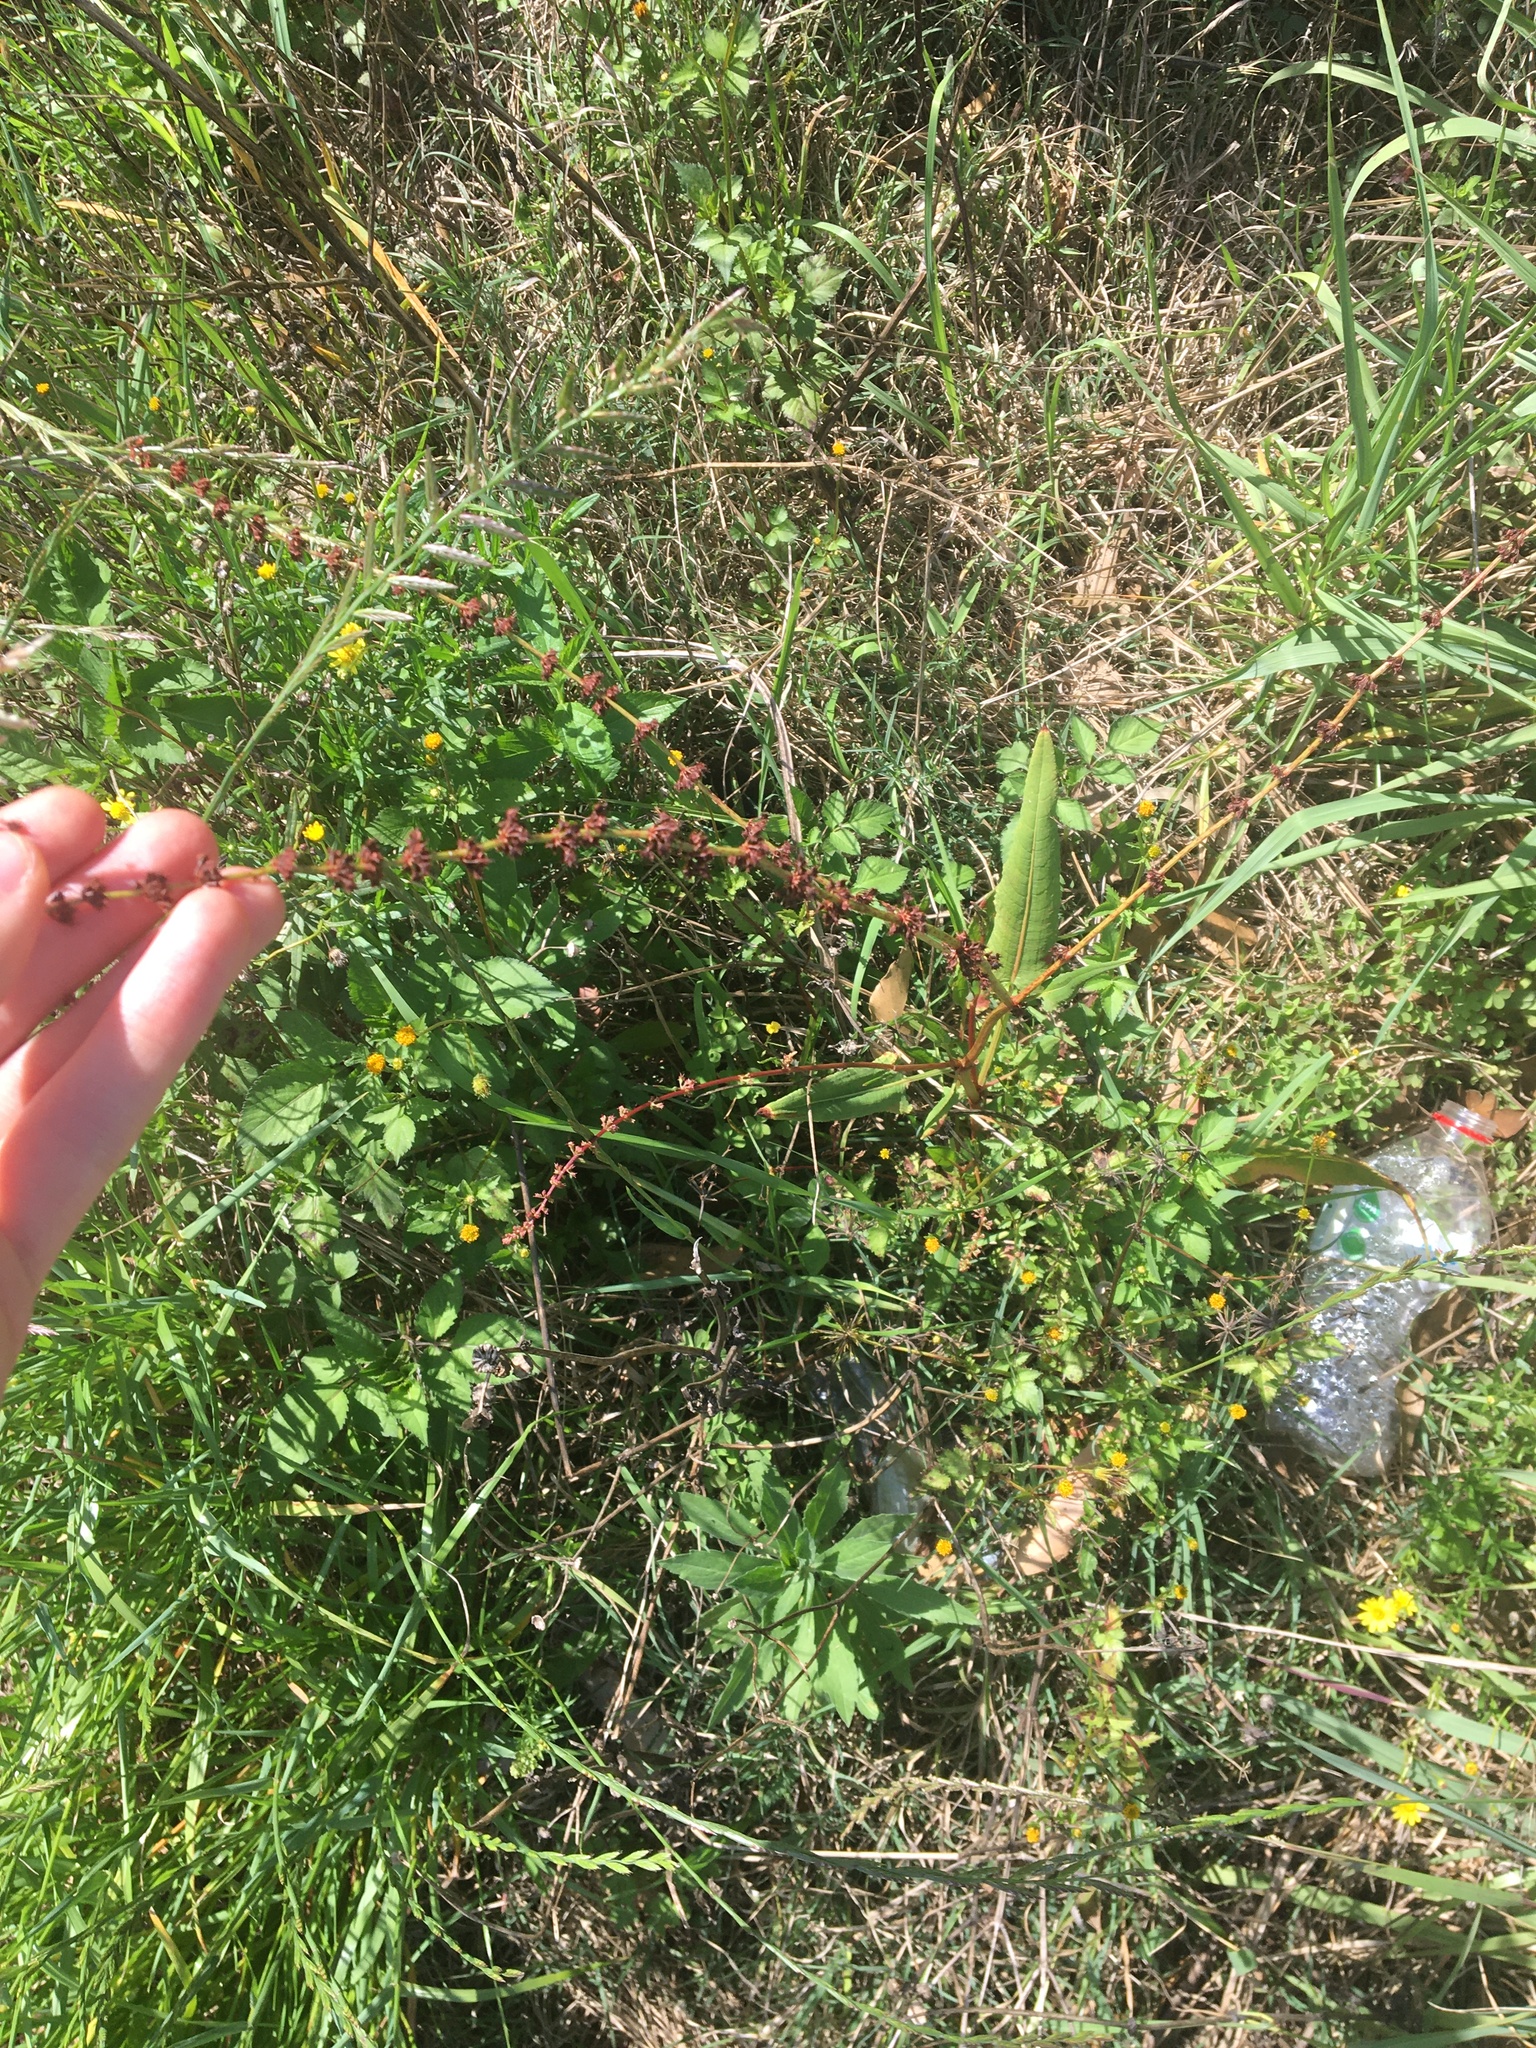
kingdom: Plantae
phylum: Tracheophyta
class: Magnoliopsida
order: Caryophyllales
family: Polygonaceae
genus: Rumex
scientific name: Rumex brownii
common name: Hooked dock
